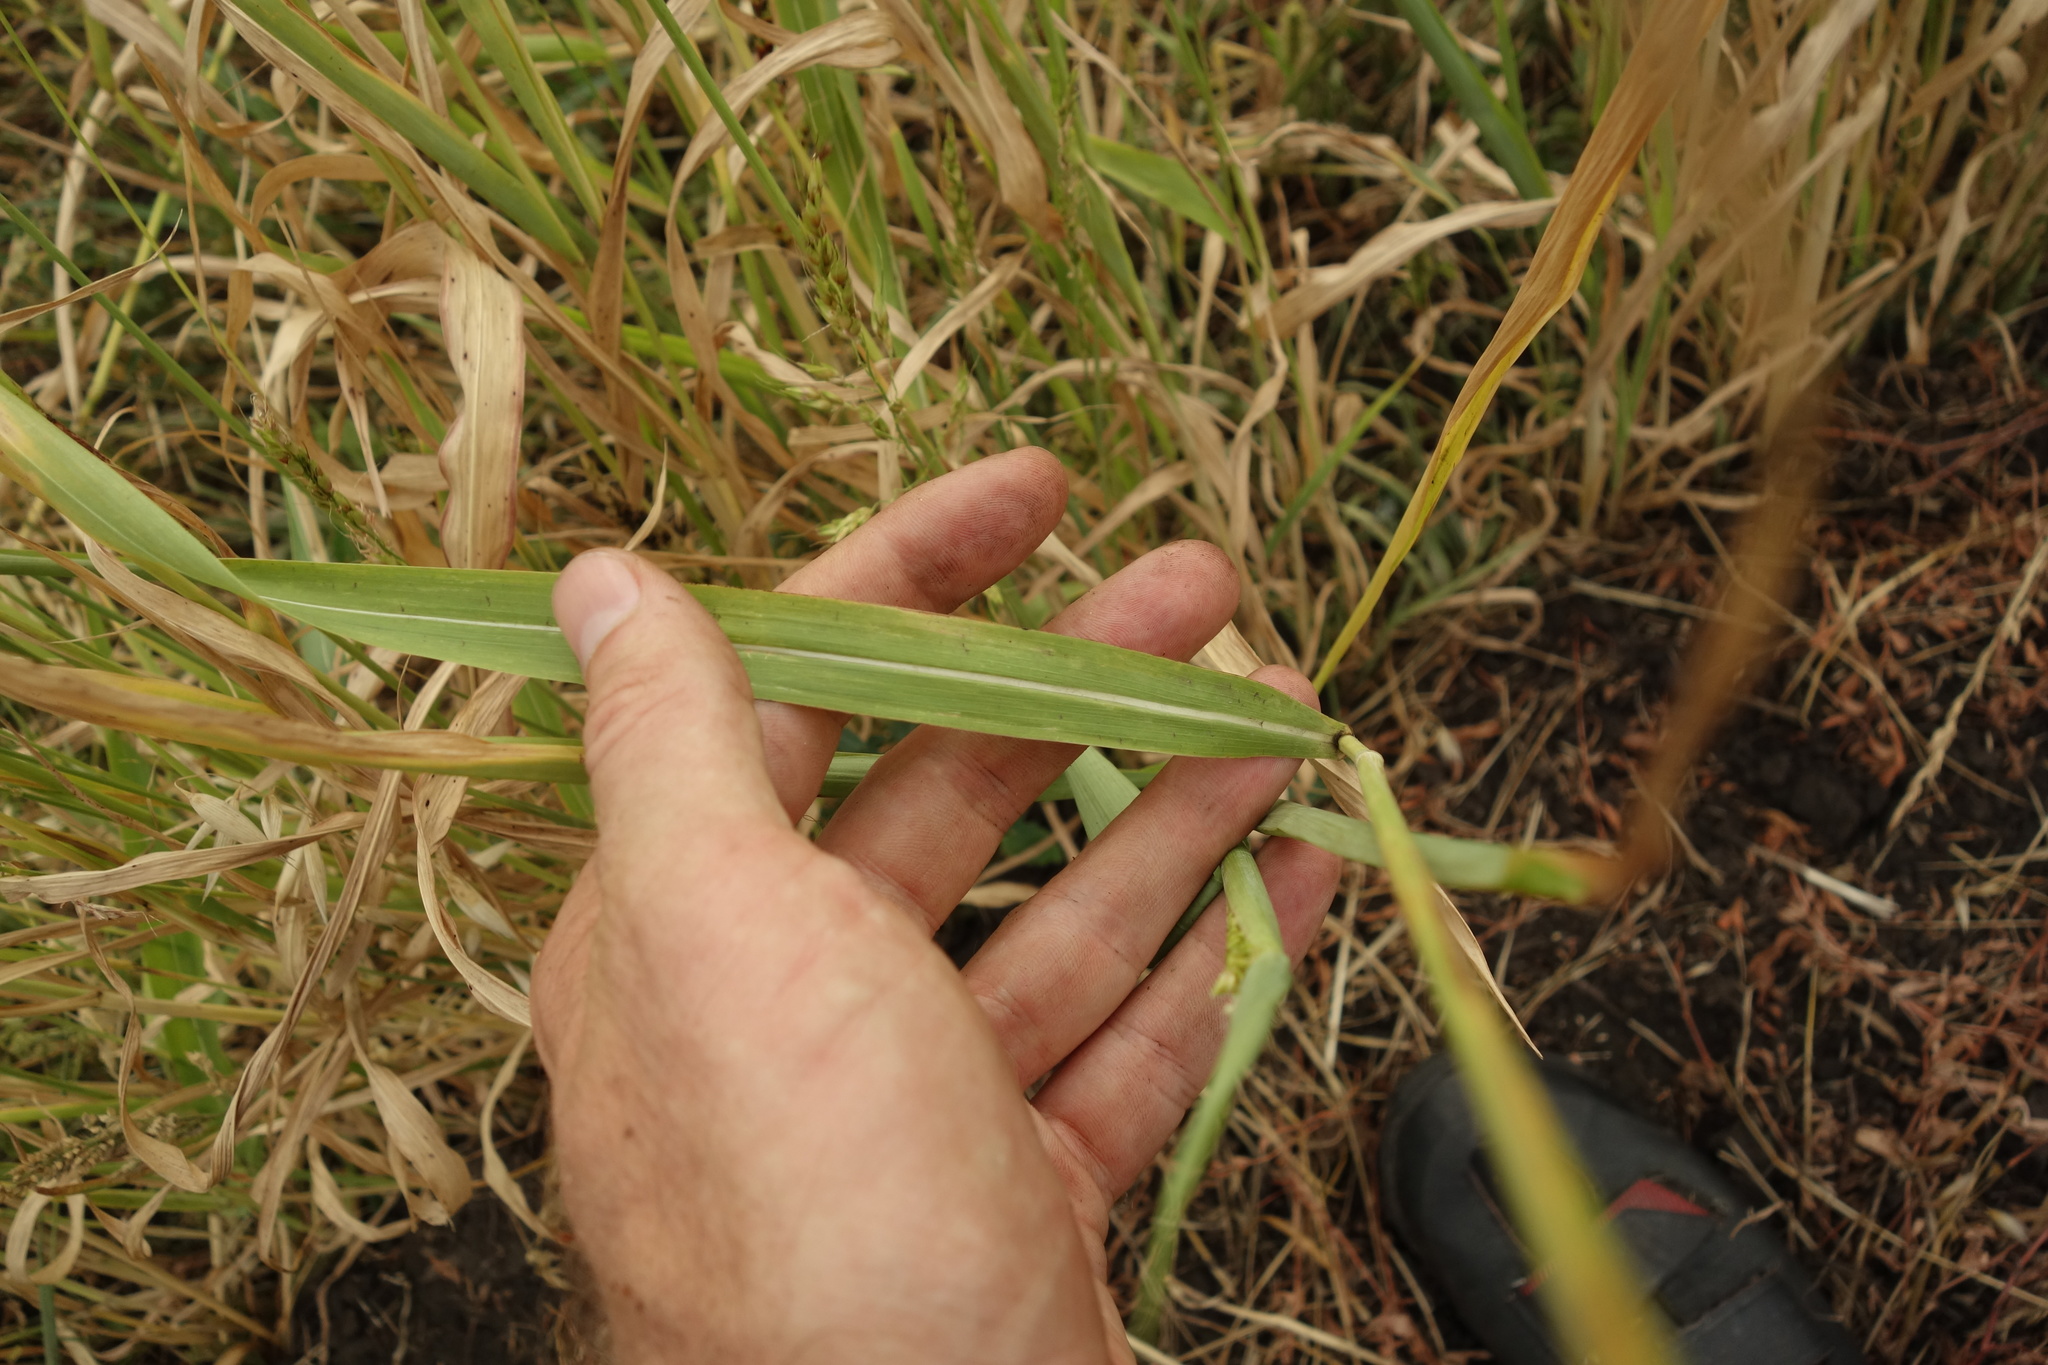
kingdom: Plantae
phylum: Tracheophyta
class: Liliopsida
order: Poales
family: Poaceae
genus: Sorghum
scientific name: Sorghum halepense
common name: Johnson-grass
